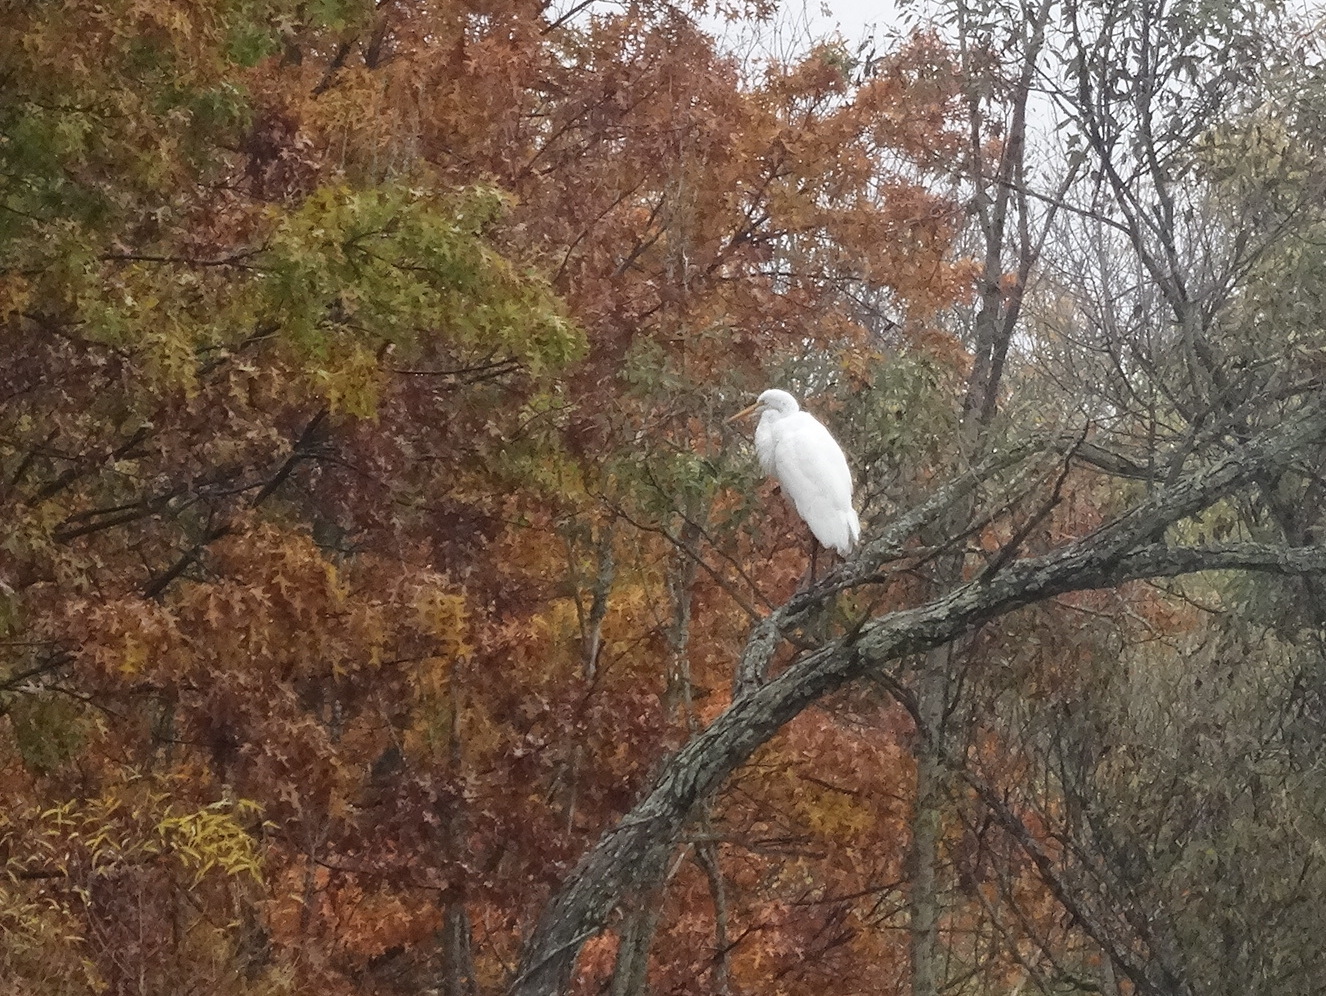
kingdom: Animalia
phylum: Chordata
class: Aves
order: Pelecaniformes
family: Ardeidae
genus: Ardea
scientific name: Ardea alba
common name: Great egret
